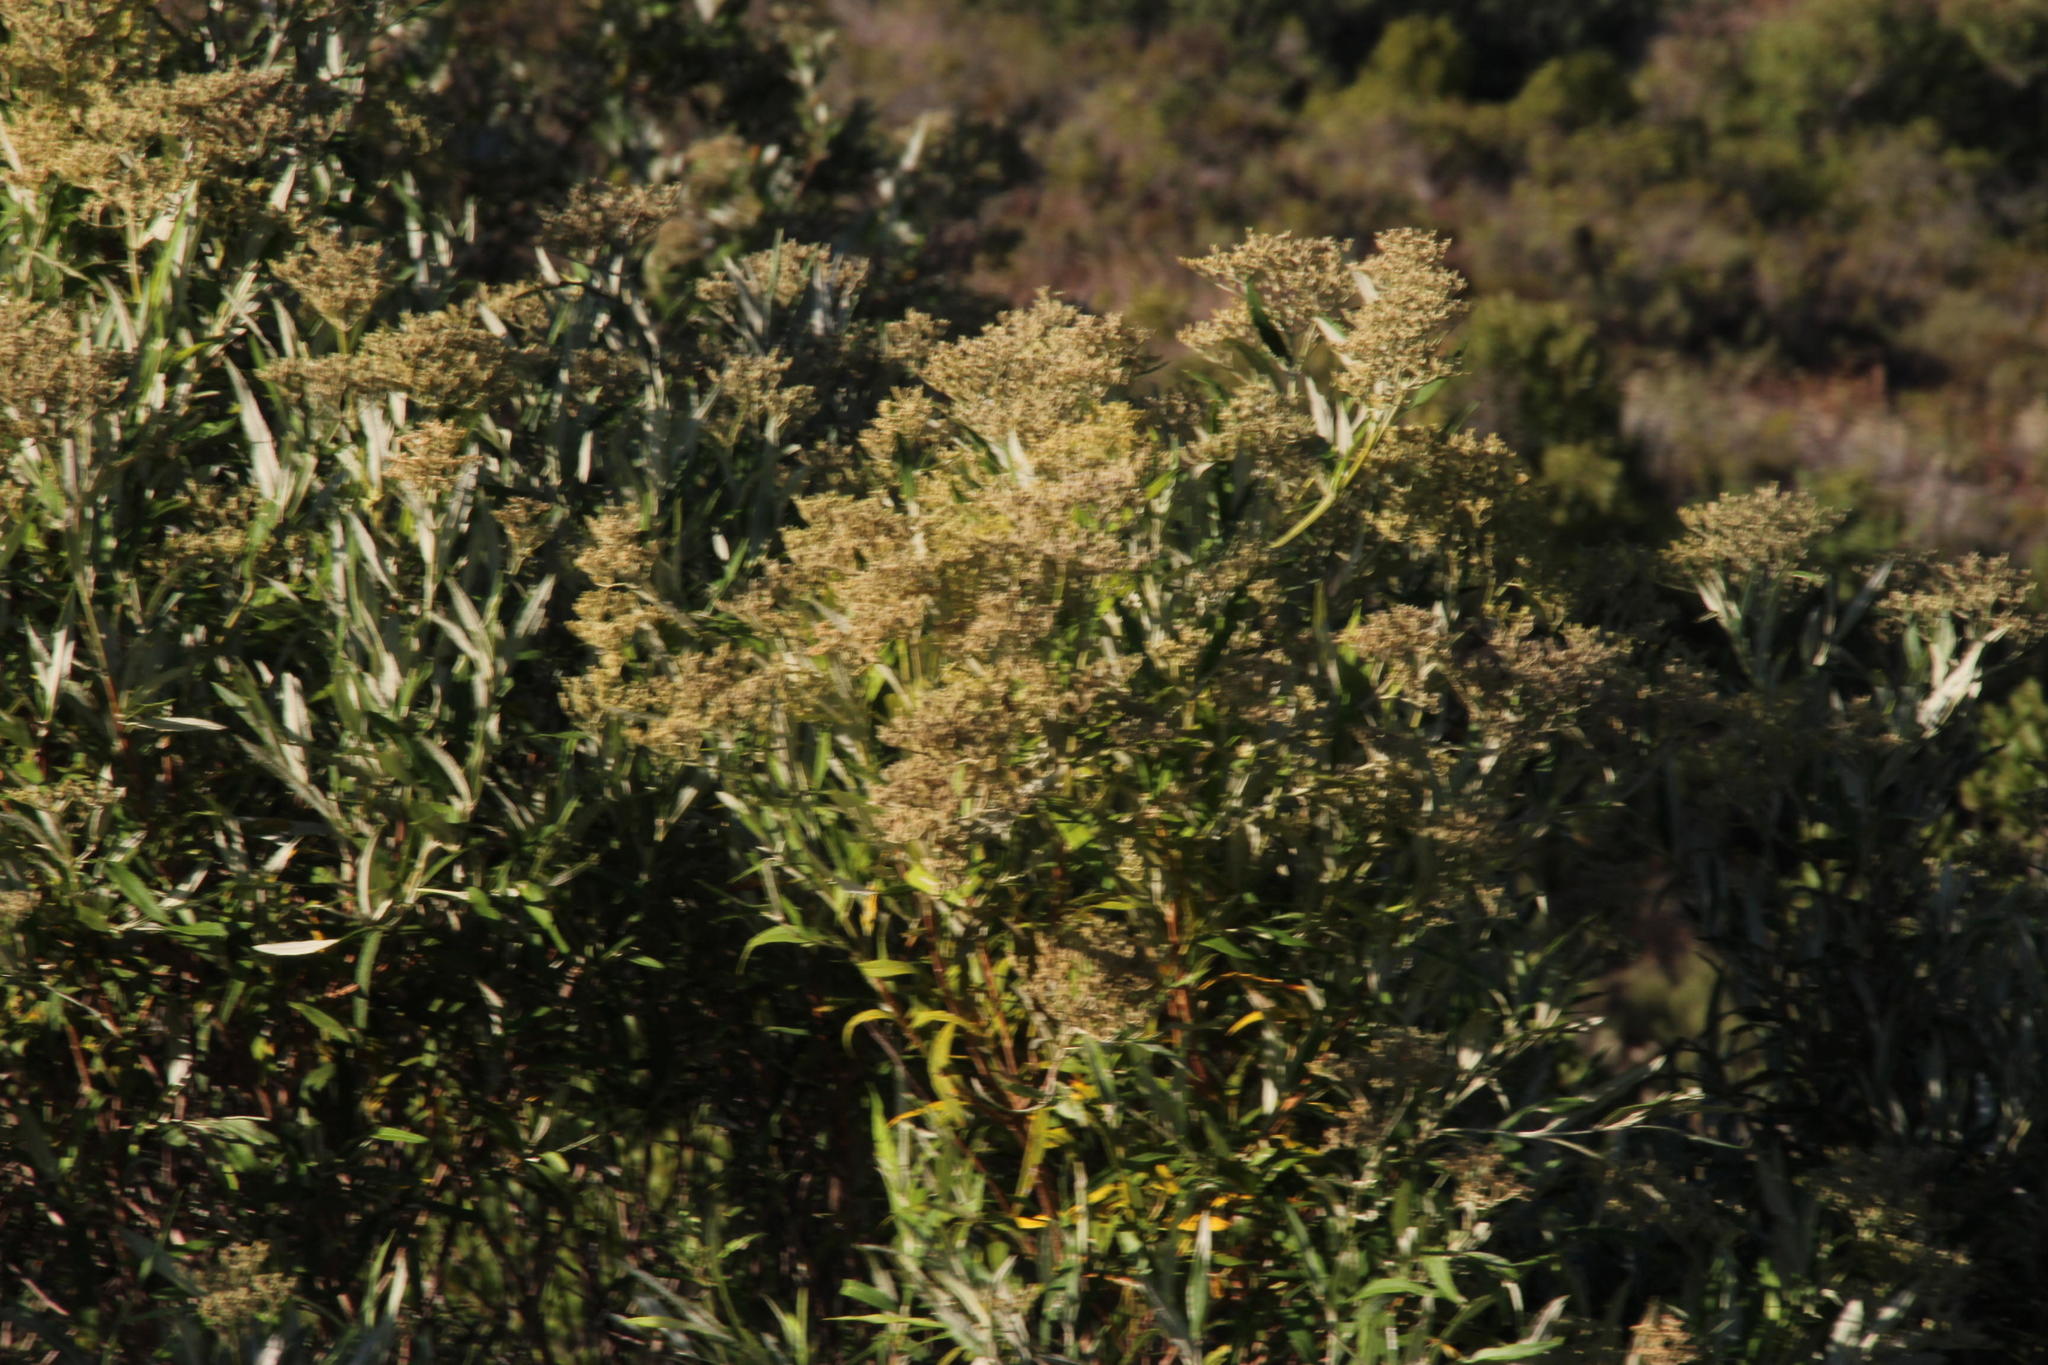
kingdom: Plantae
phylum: Tracheophyta
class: Magnoliopsida
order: Lamiales
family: Scrophulariaceae
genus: Buddleja
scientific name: Buddleja saligna
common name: False olive
